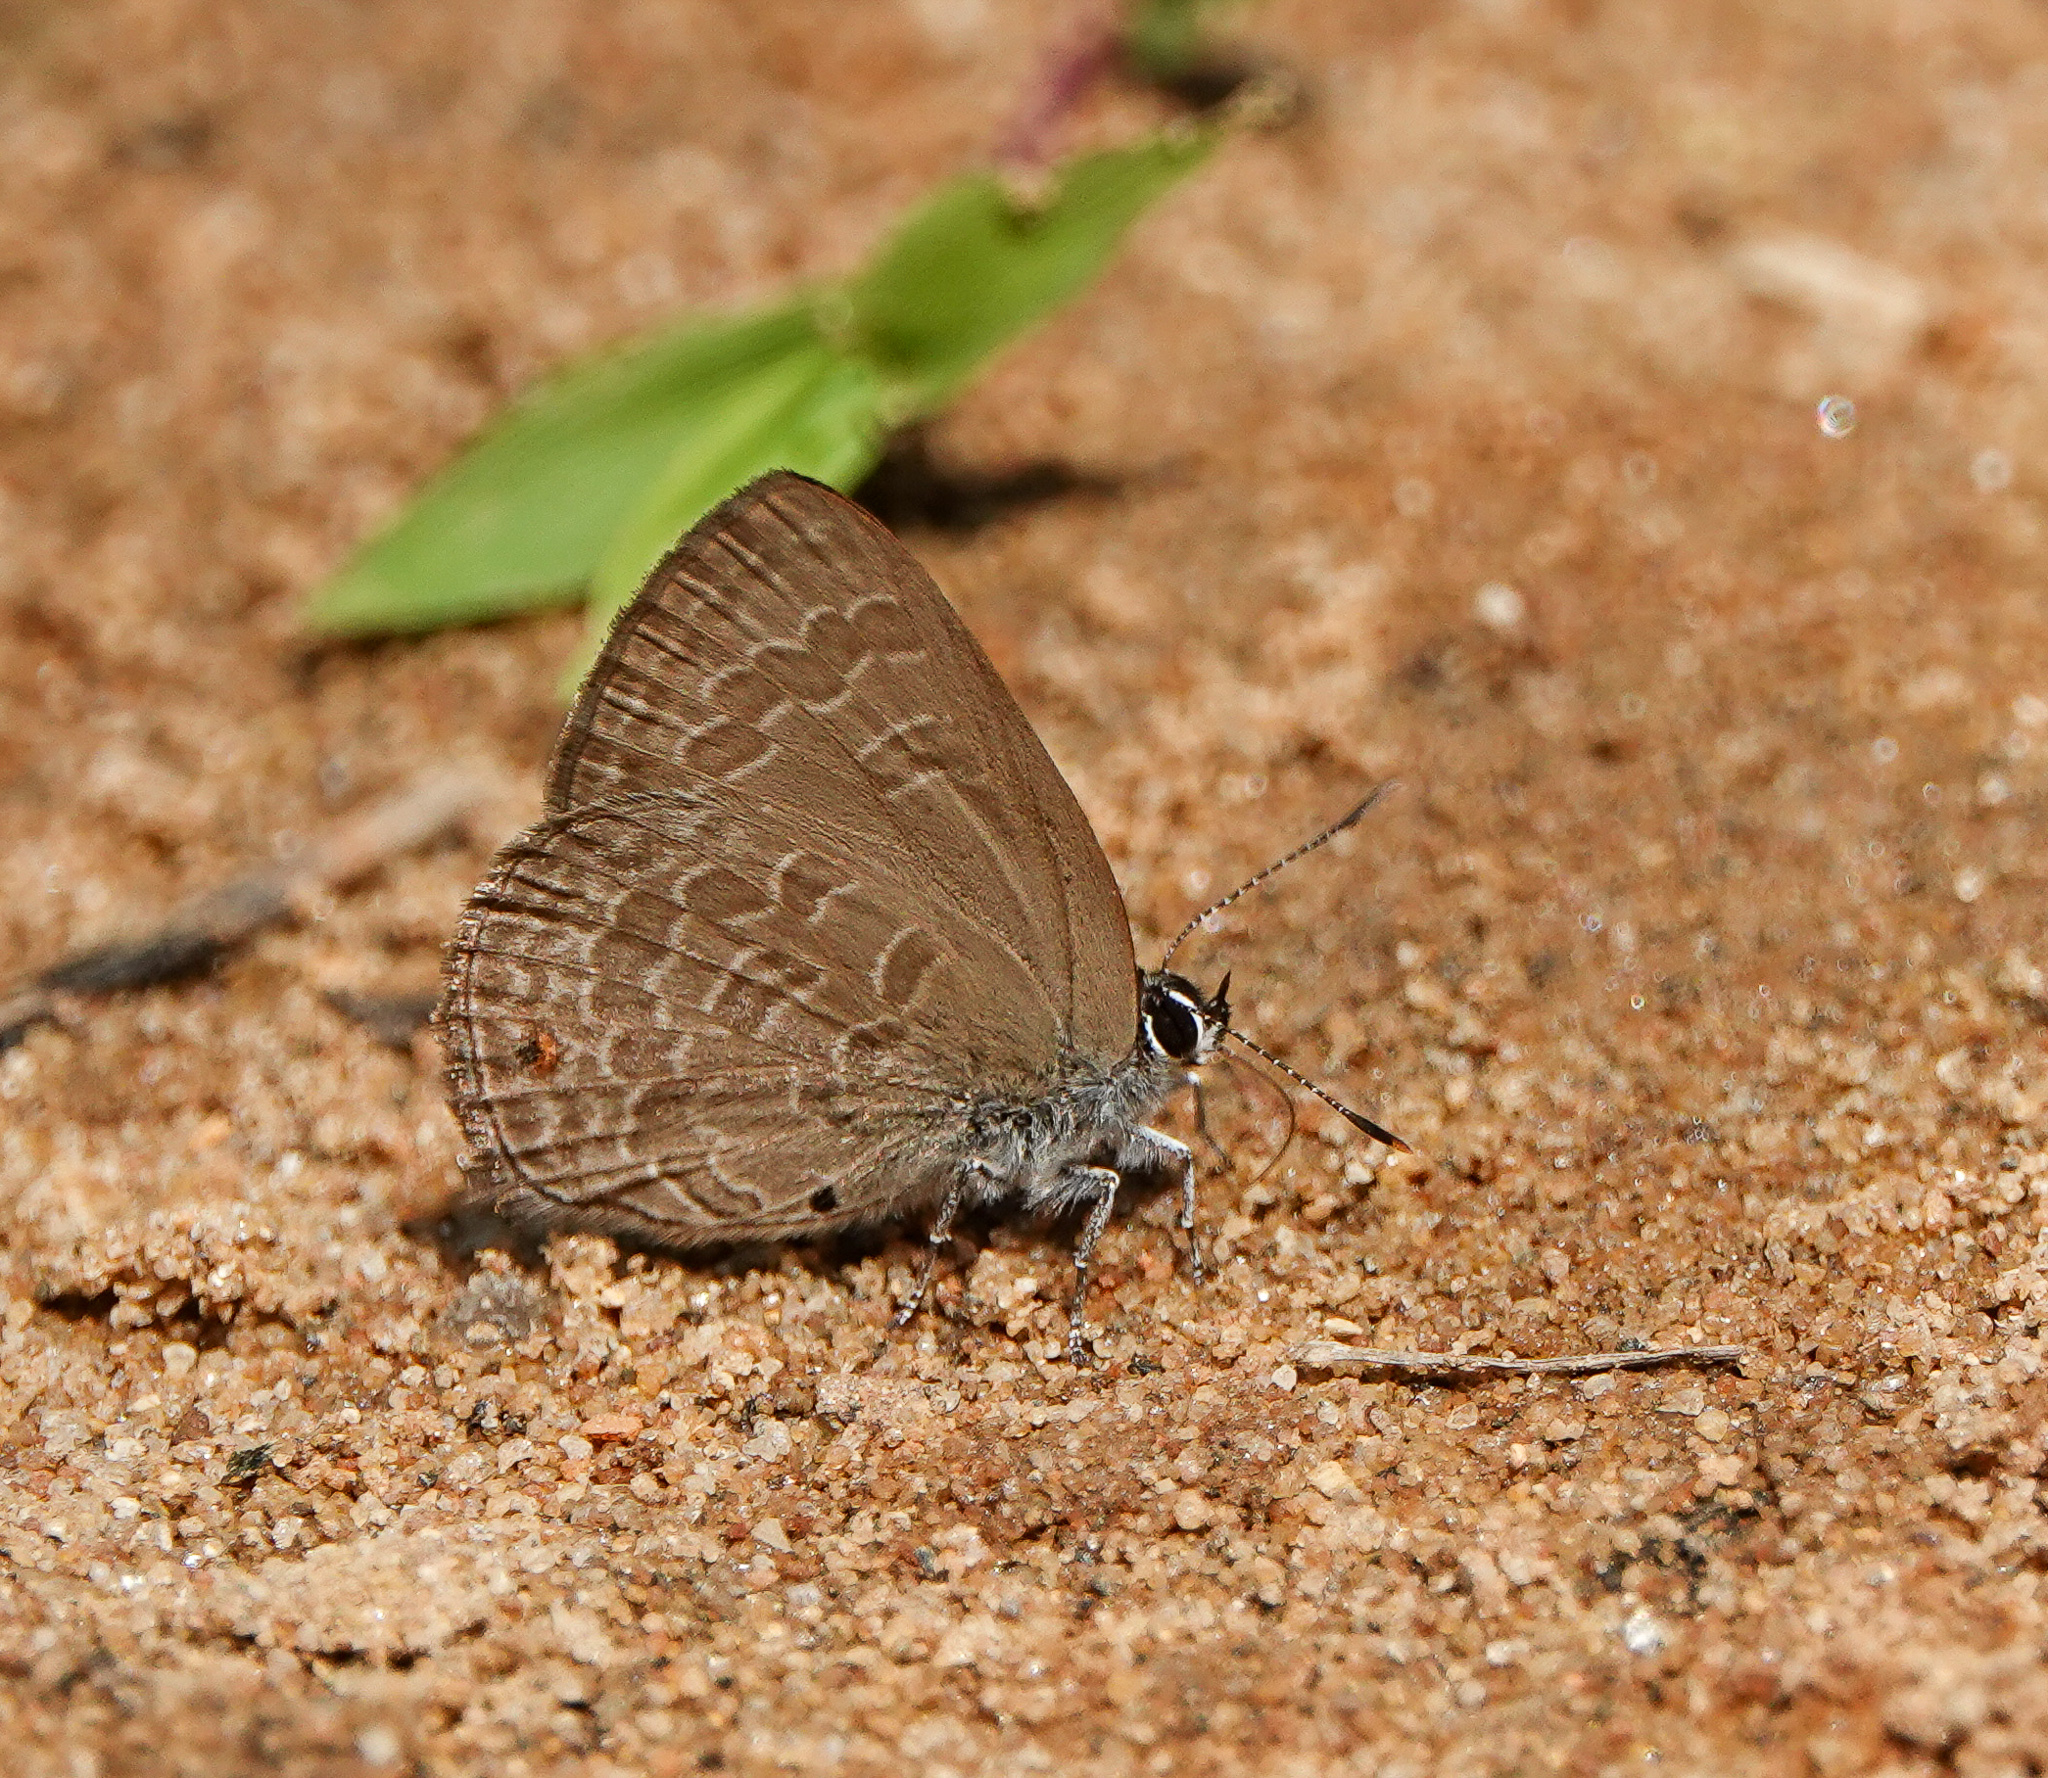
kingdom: Animalia
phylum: Arthropoda
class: Insecta
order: Lepidoptera
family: Lycaenidae
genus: Anthene
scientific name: Anthene emolus
